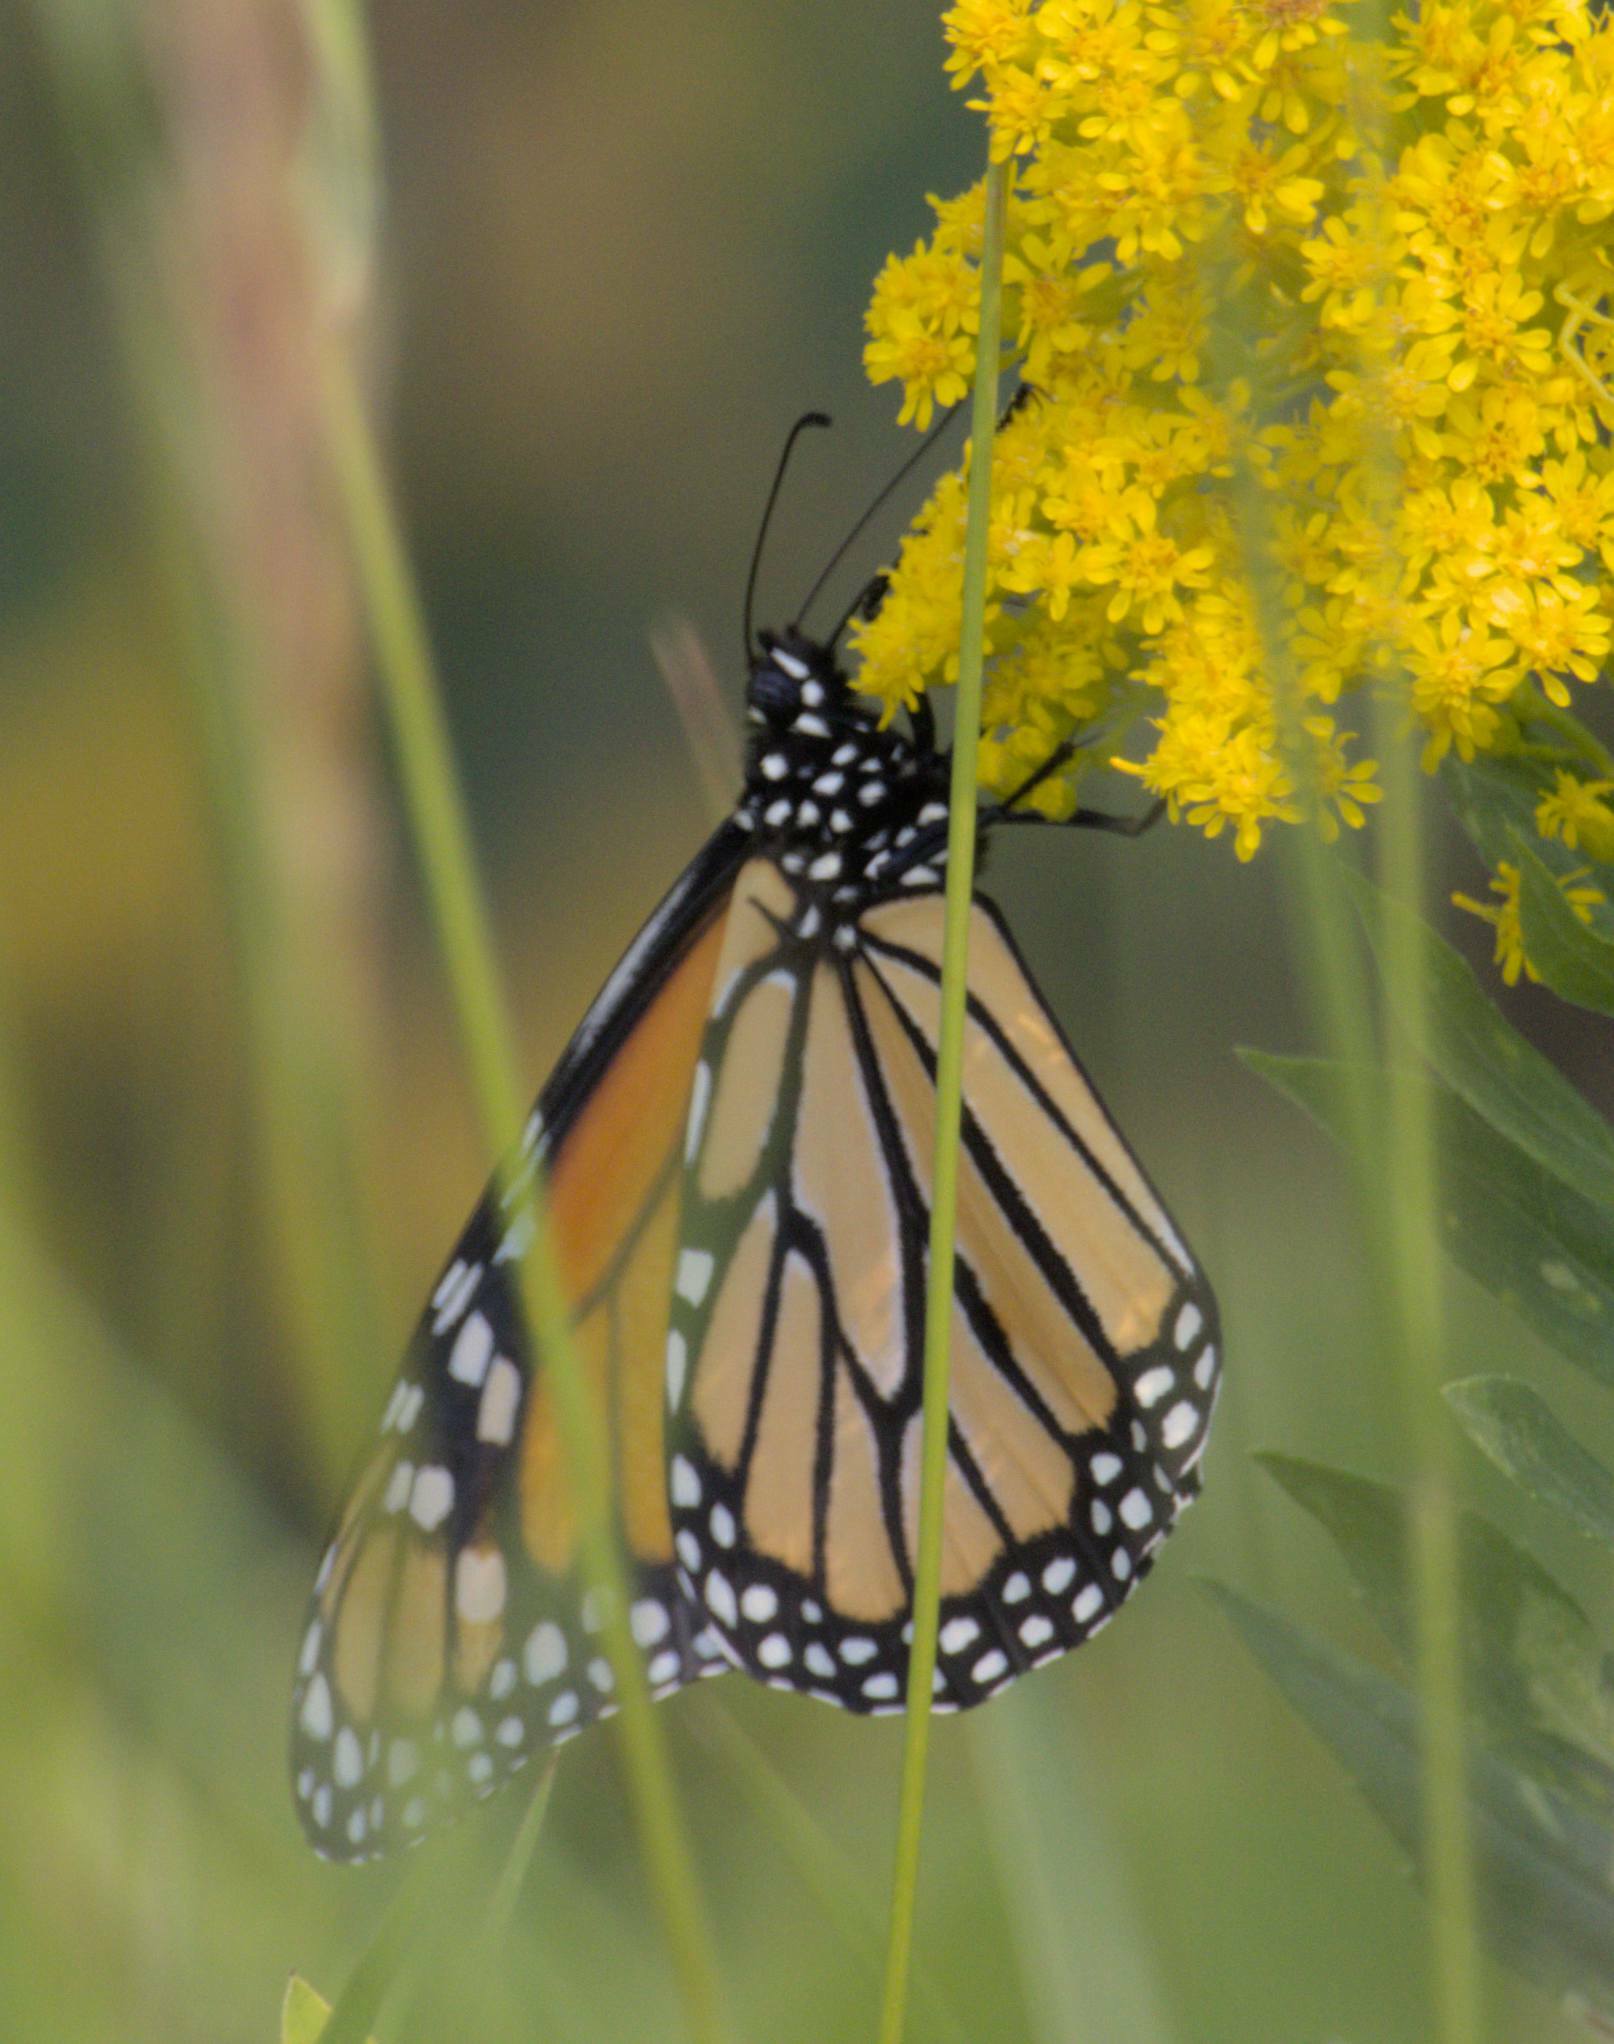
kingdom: Animalia
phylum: Arthropoda
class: Insecta
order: Lepidoptera
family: Nymphalidae
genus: Danaus
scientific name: Danaus plexippus
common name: Monarch
